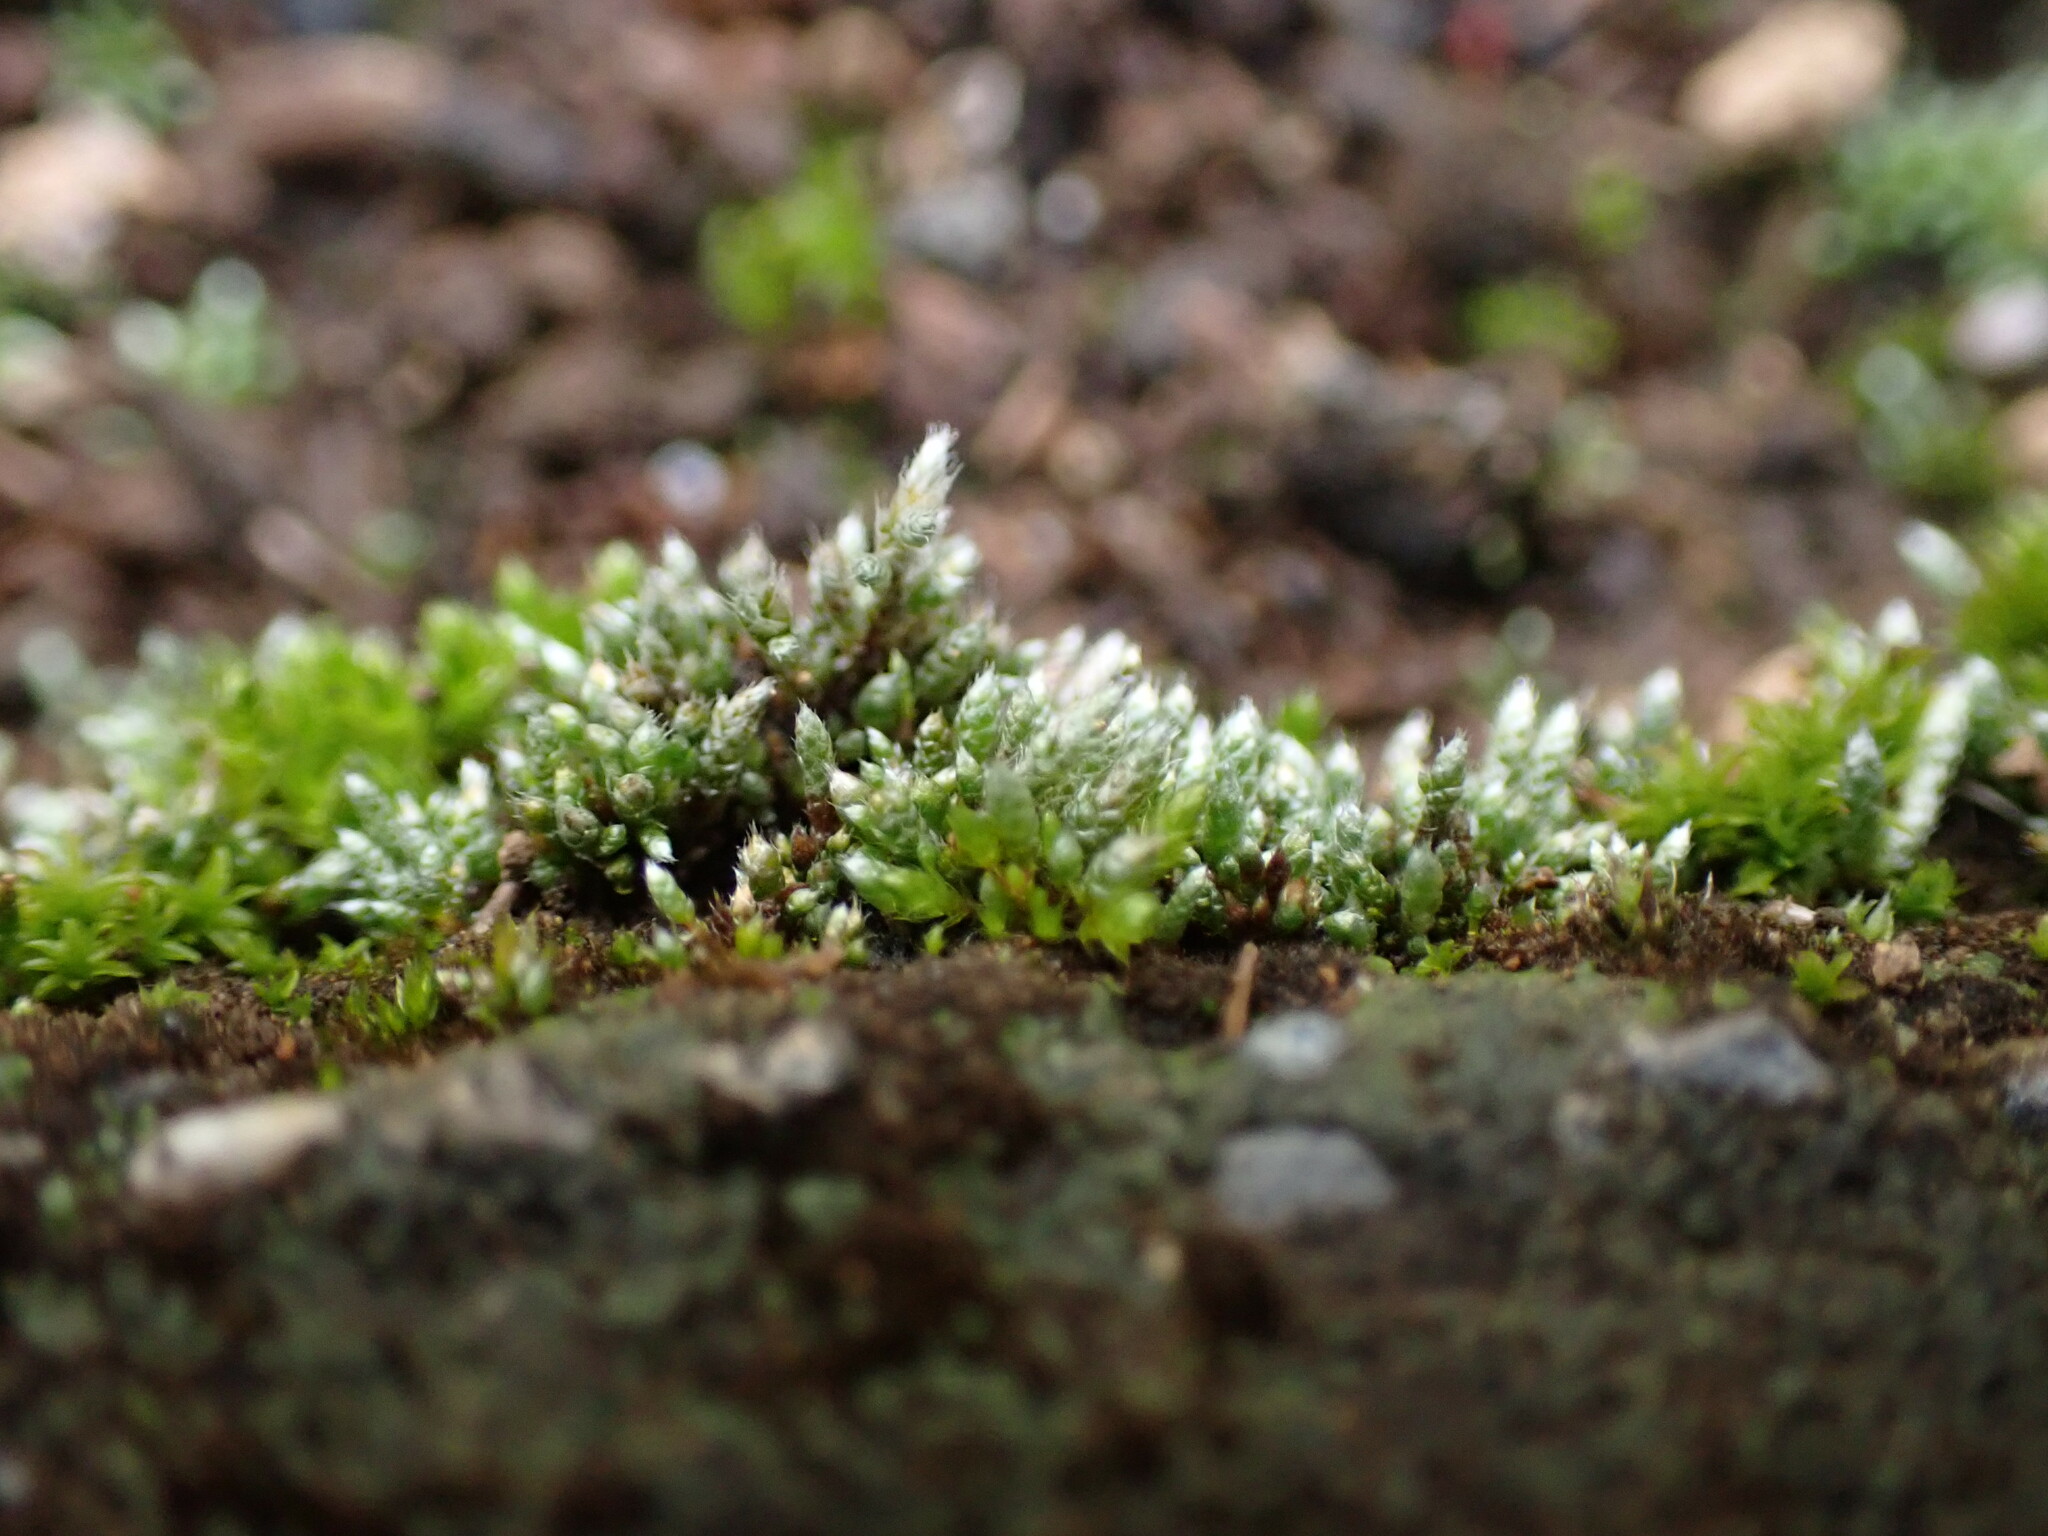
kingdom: Plantae
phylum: Bryophyta
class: Bryopsida
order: Bryales
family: Bryaceae
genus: Bryum
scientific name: Bryum argenteum
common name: Silver-moss
